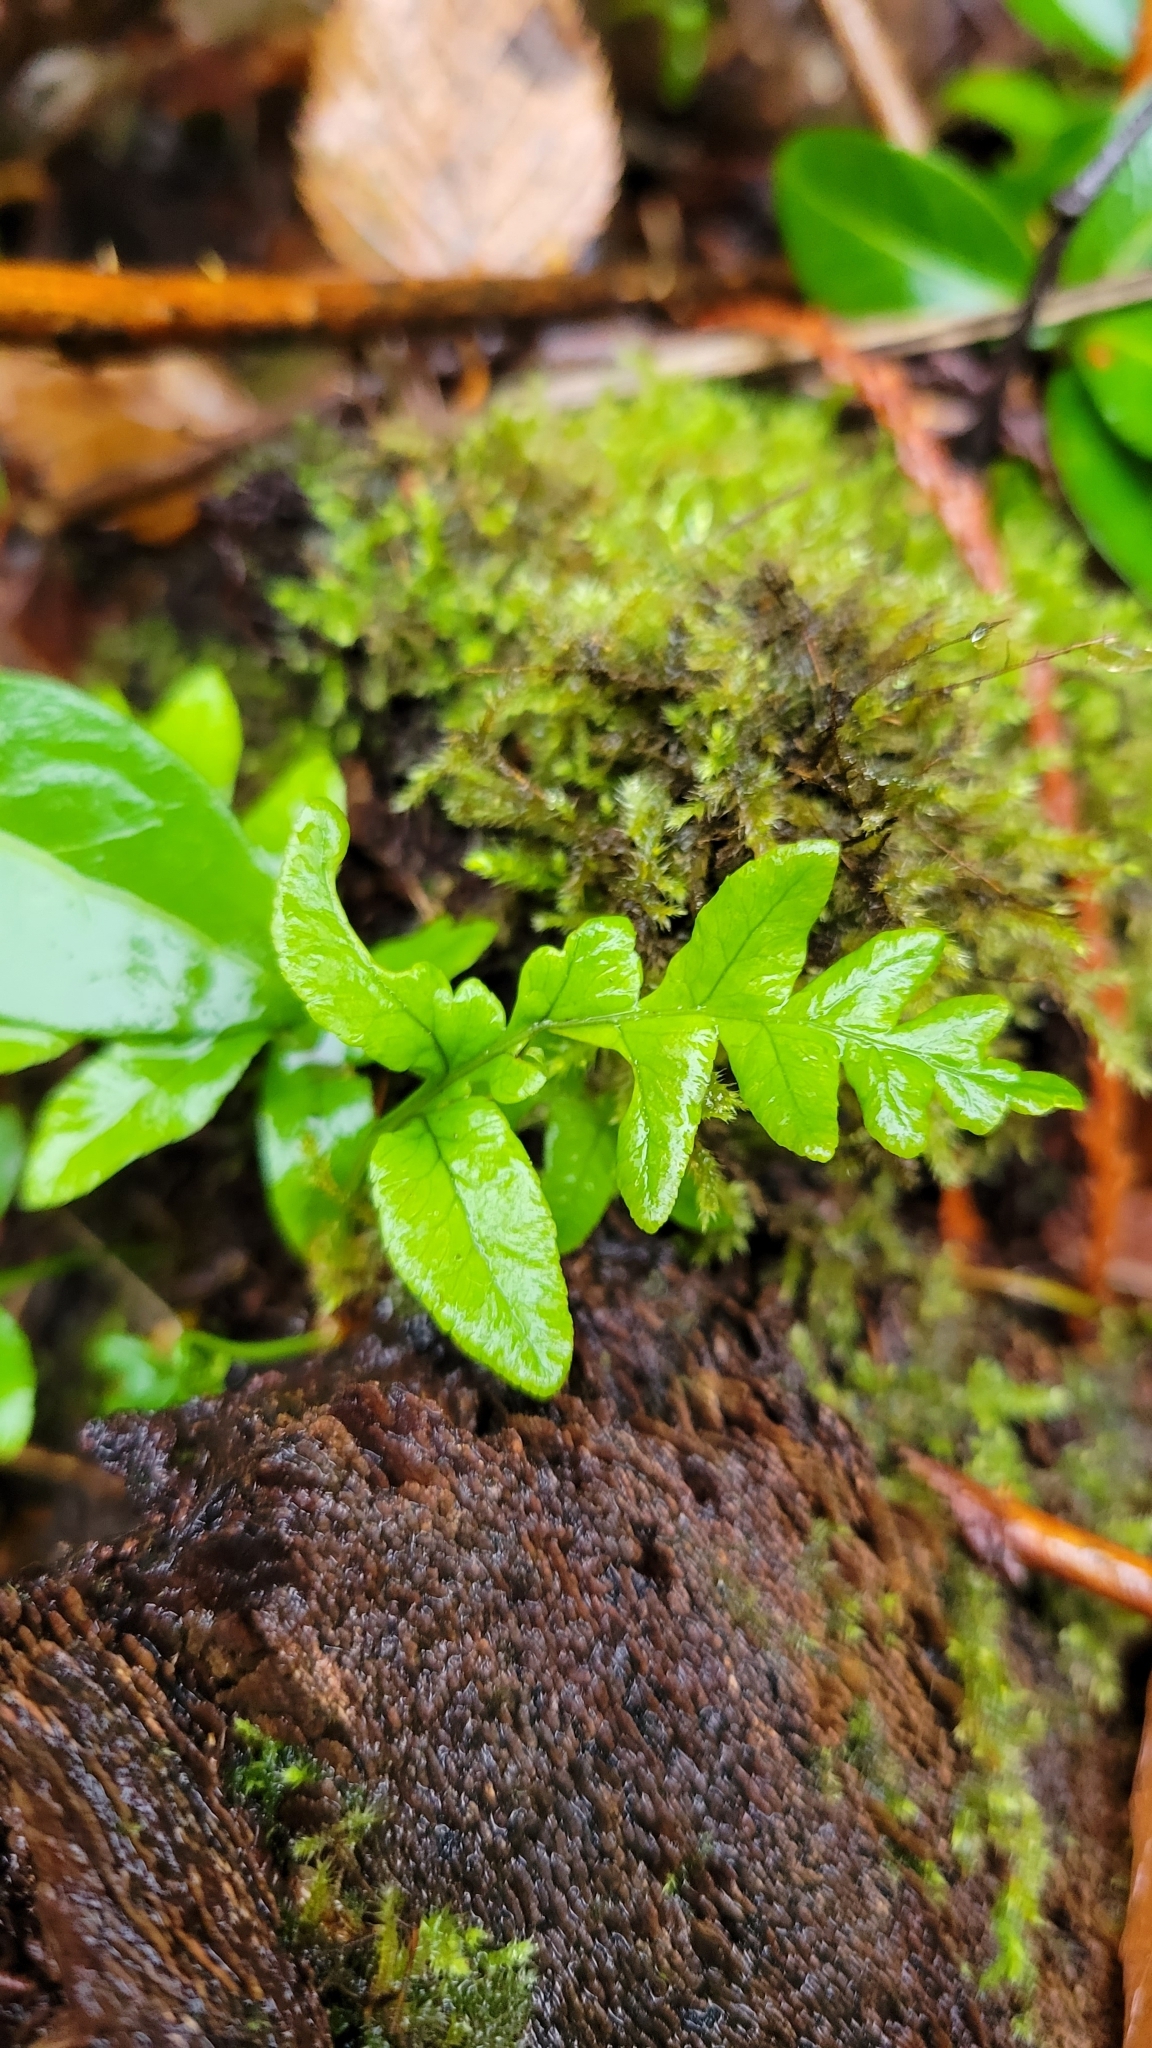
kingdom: Plantae
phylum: Tracheophyta
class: Polypodiopsida
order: Polypodiales
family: Polypodiaceae
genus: Polypodium
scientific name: Polypodium glycyrrhiza
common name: Licorice fern
